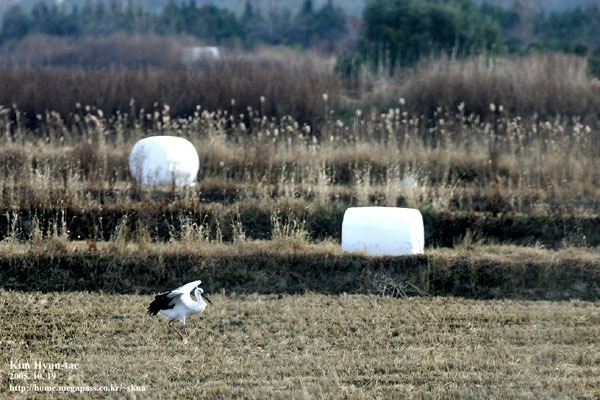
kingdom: Animalia
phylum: Chordata
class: Aves
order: Ciconiiformes
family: Ciconiidae
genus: Ciconia
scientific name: Ciconia boyciana
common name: Oriental stork
